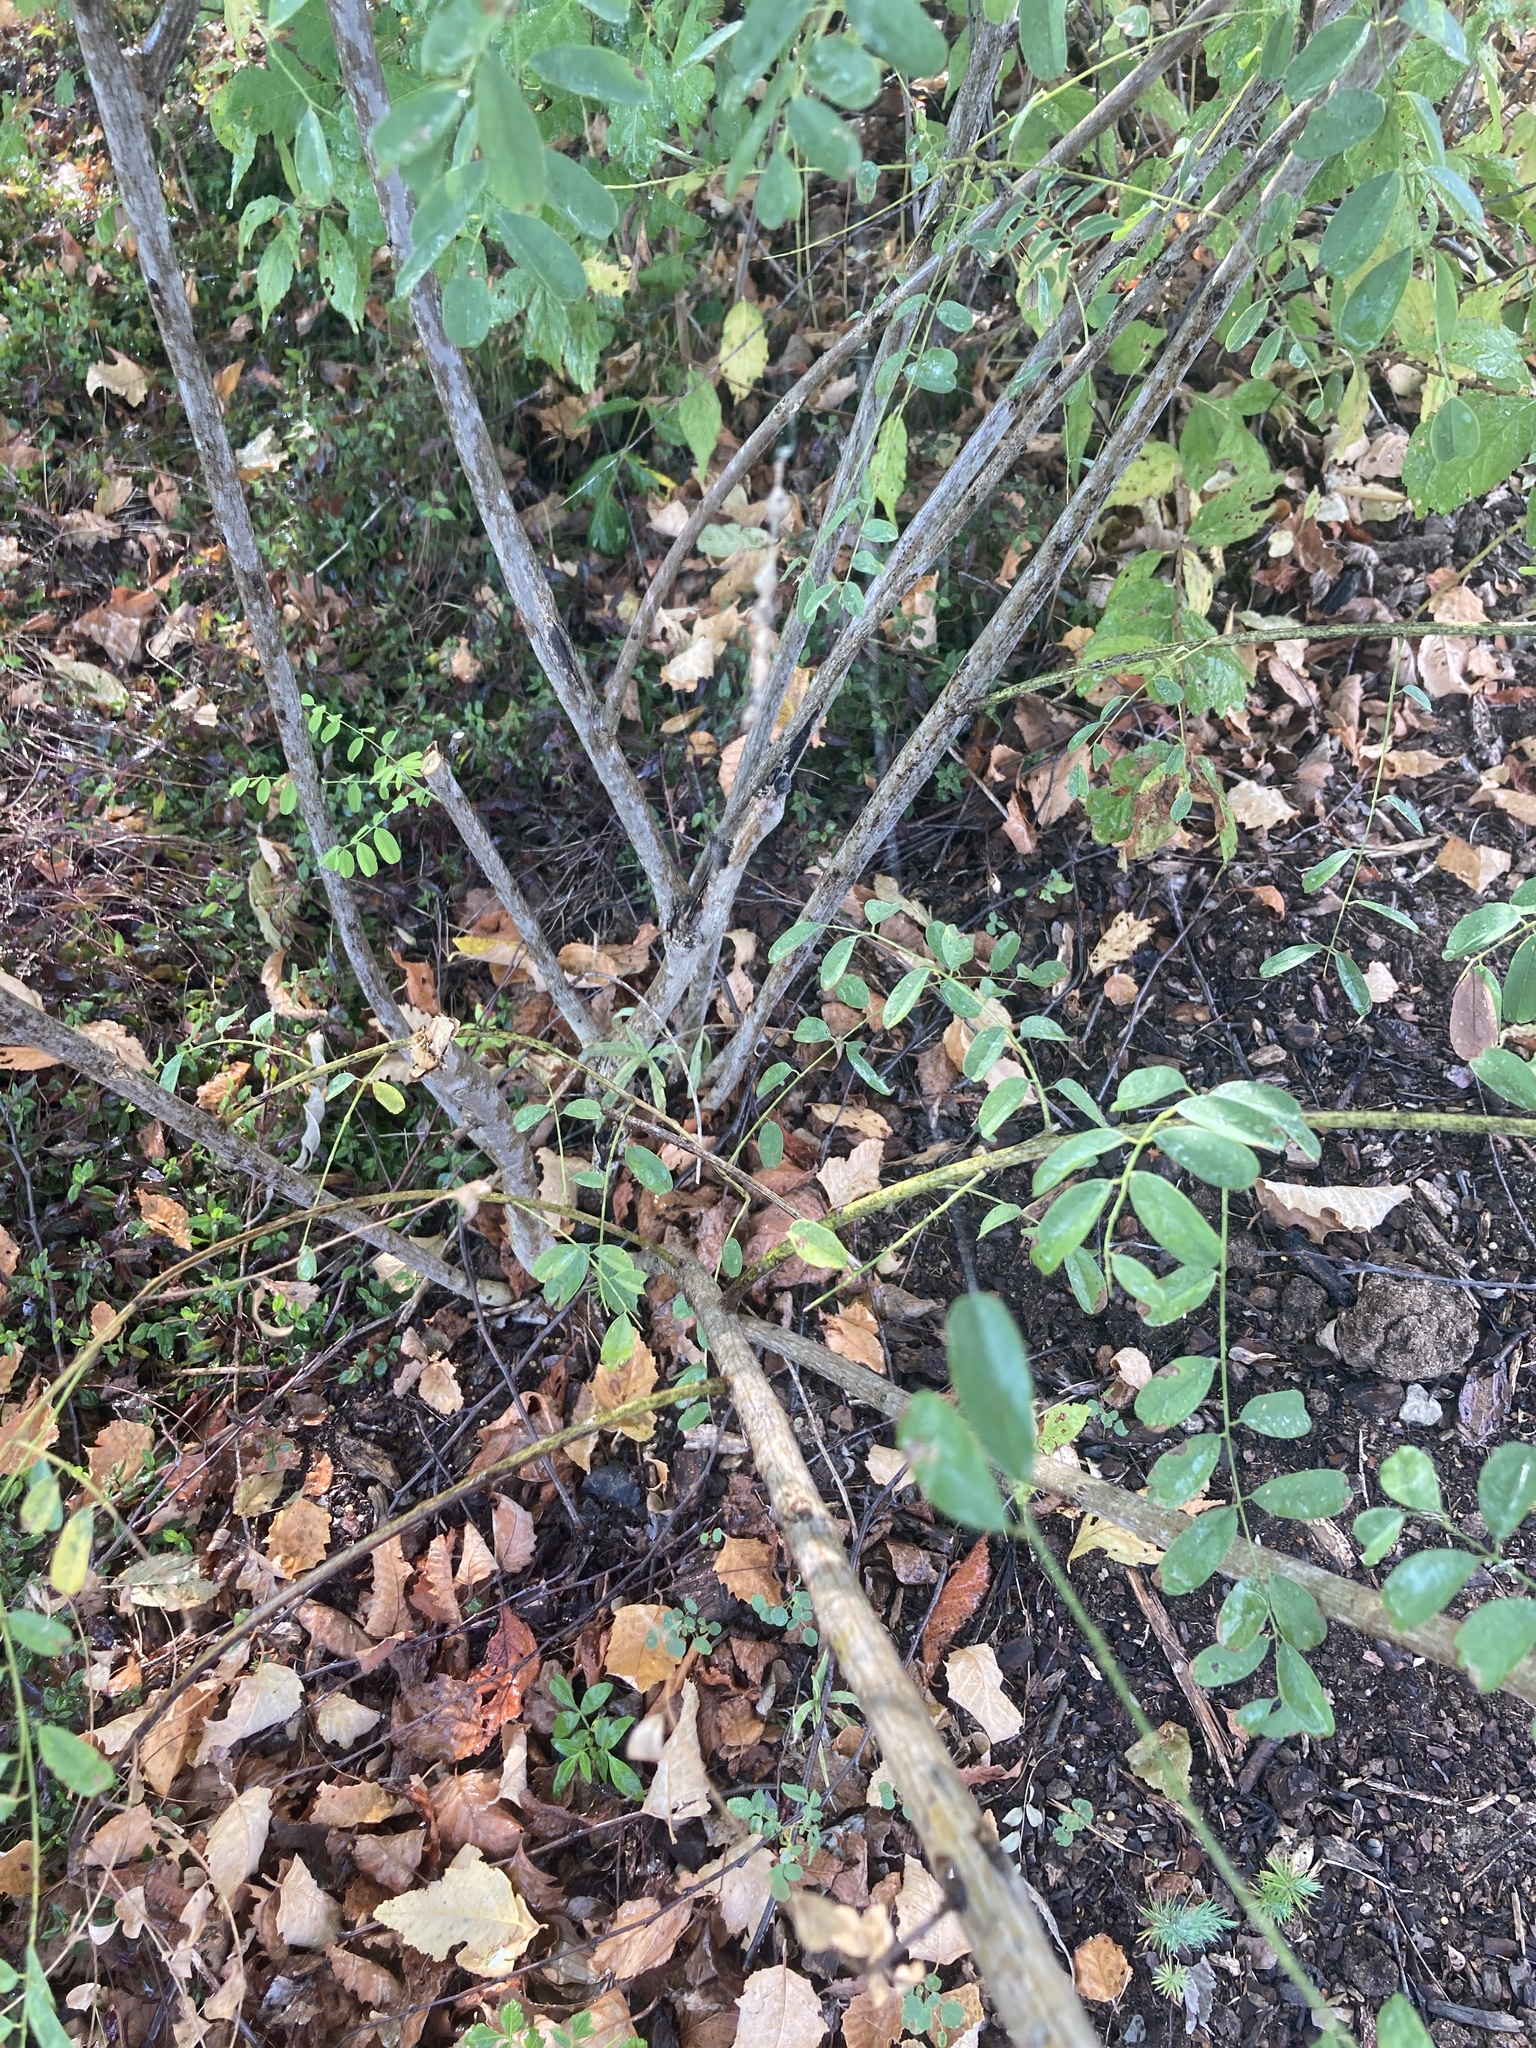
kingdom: Plantae
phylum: Tracheophyta
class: Magnoliopsida
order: Fabales
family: Fabaceae
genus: Amorpha
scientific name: Amorpha laevigata
